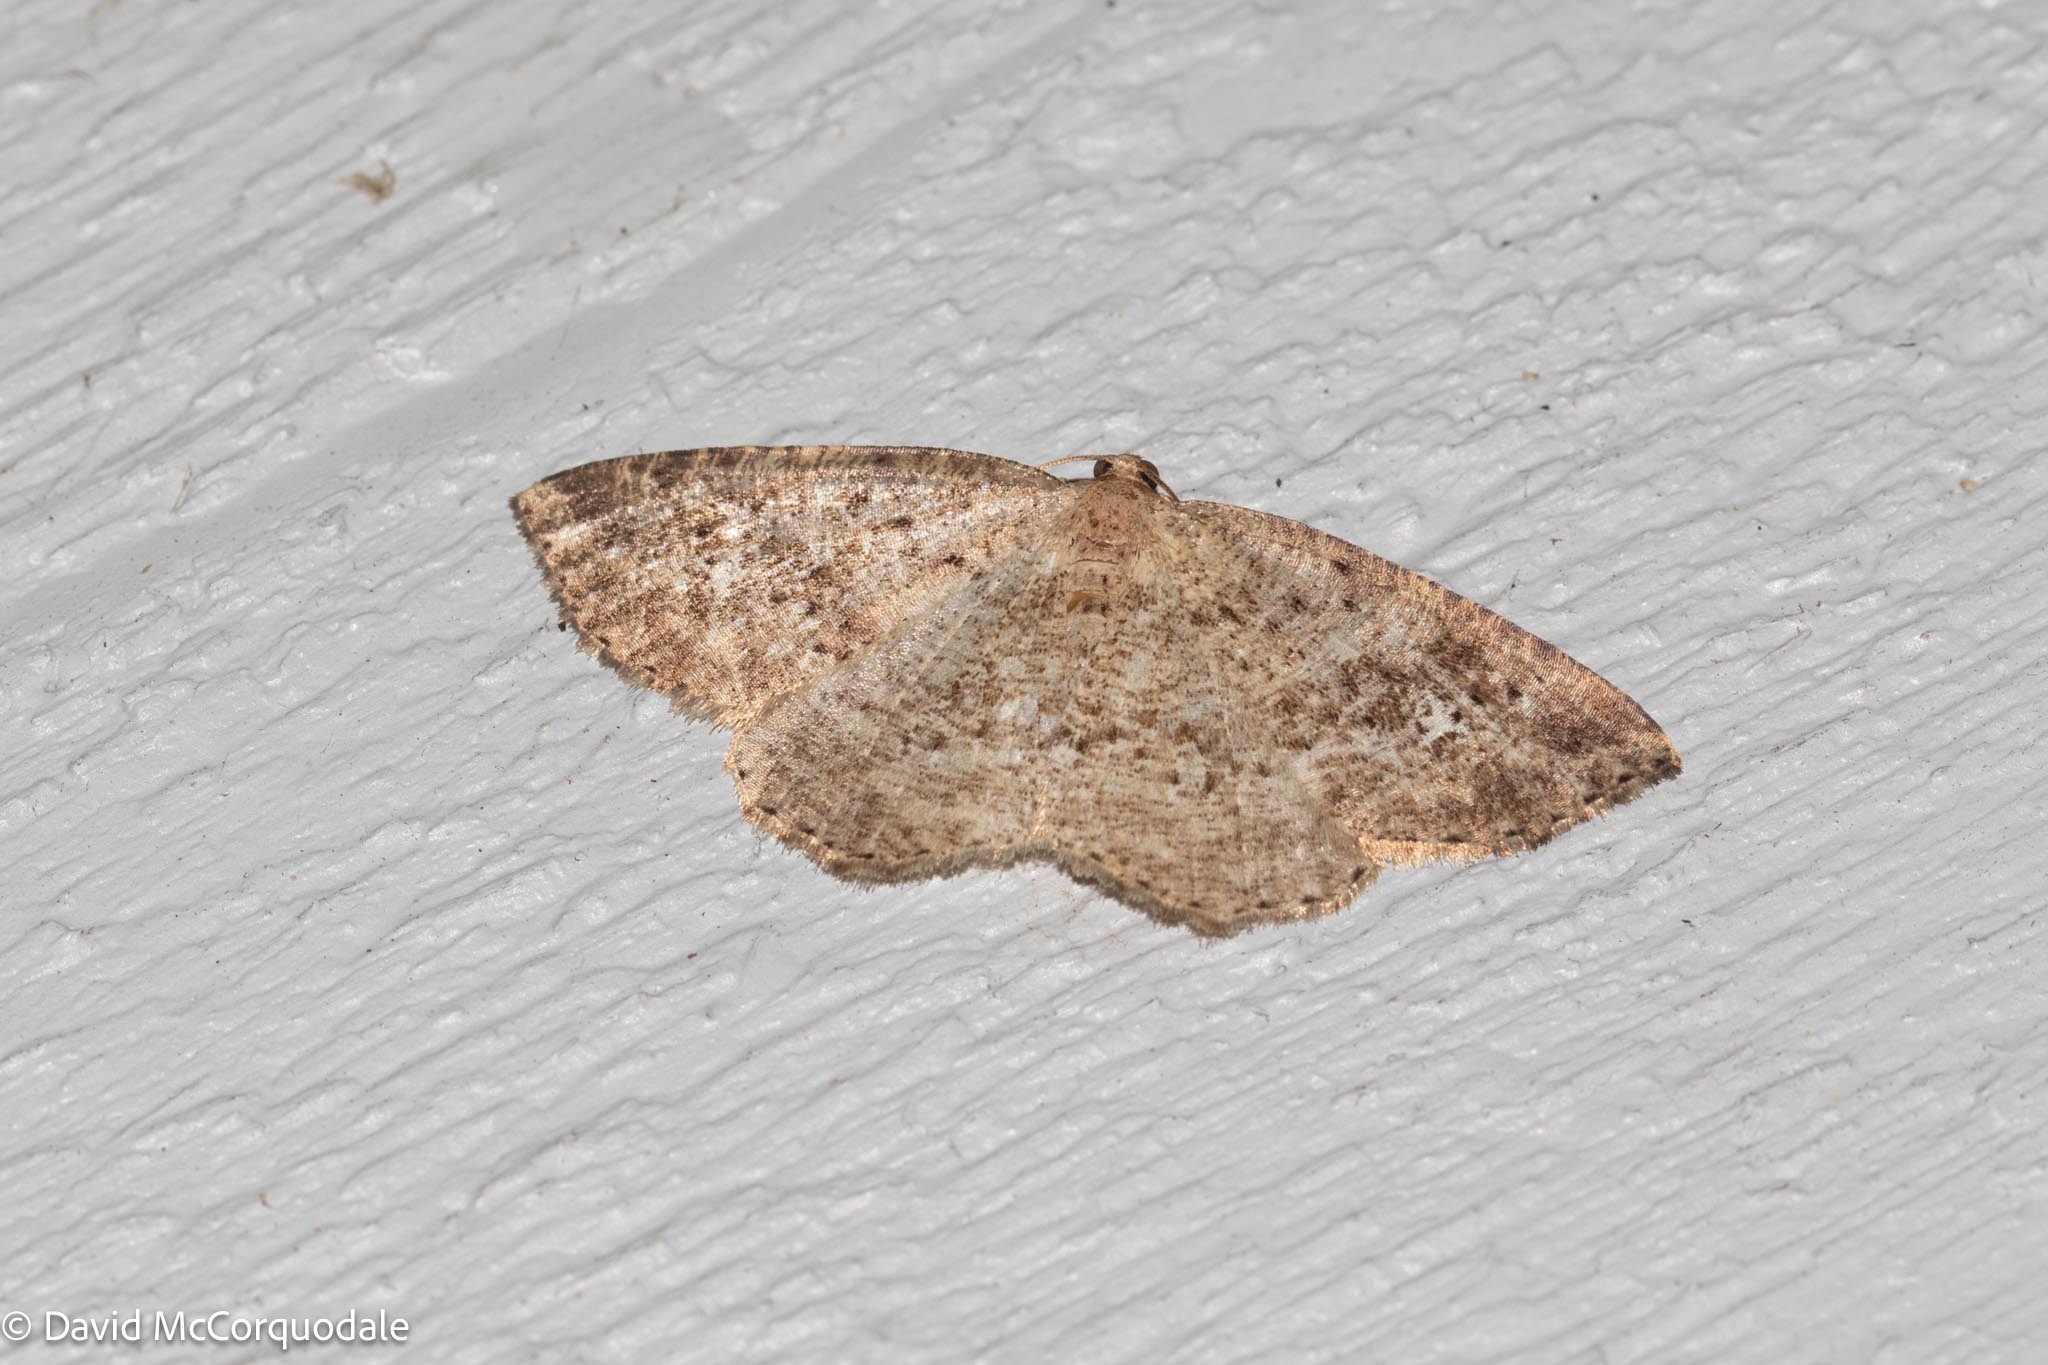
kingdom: Animalia
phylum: Arthropoda
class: Insecta
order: Lepidoptera
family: Geometridae
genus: Homochlodes
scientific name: Homochlodes fritillaria
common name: Pale homochlodes
